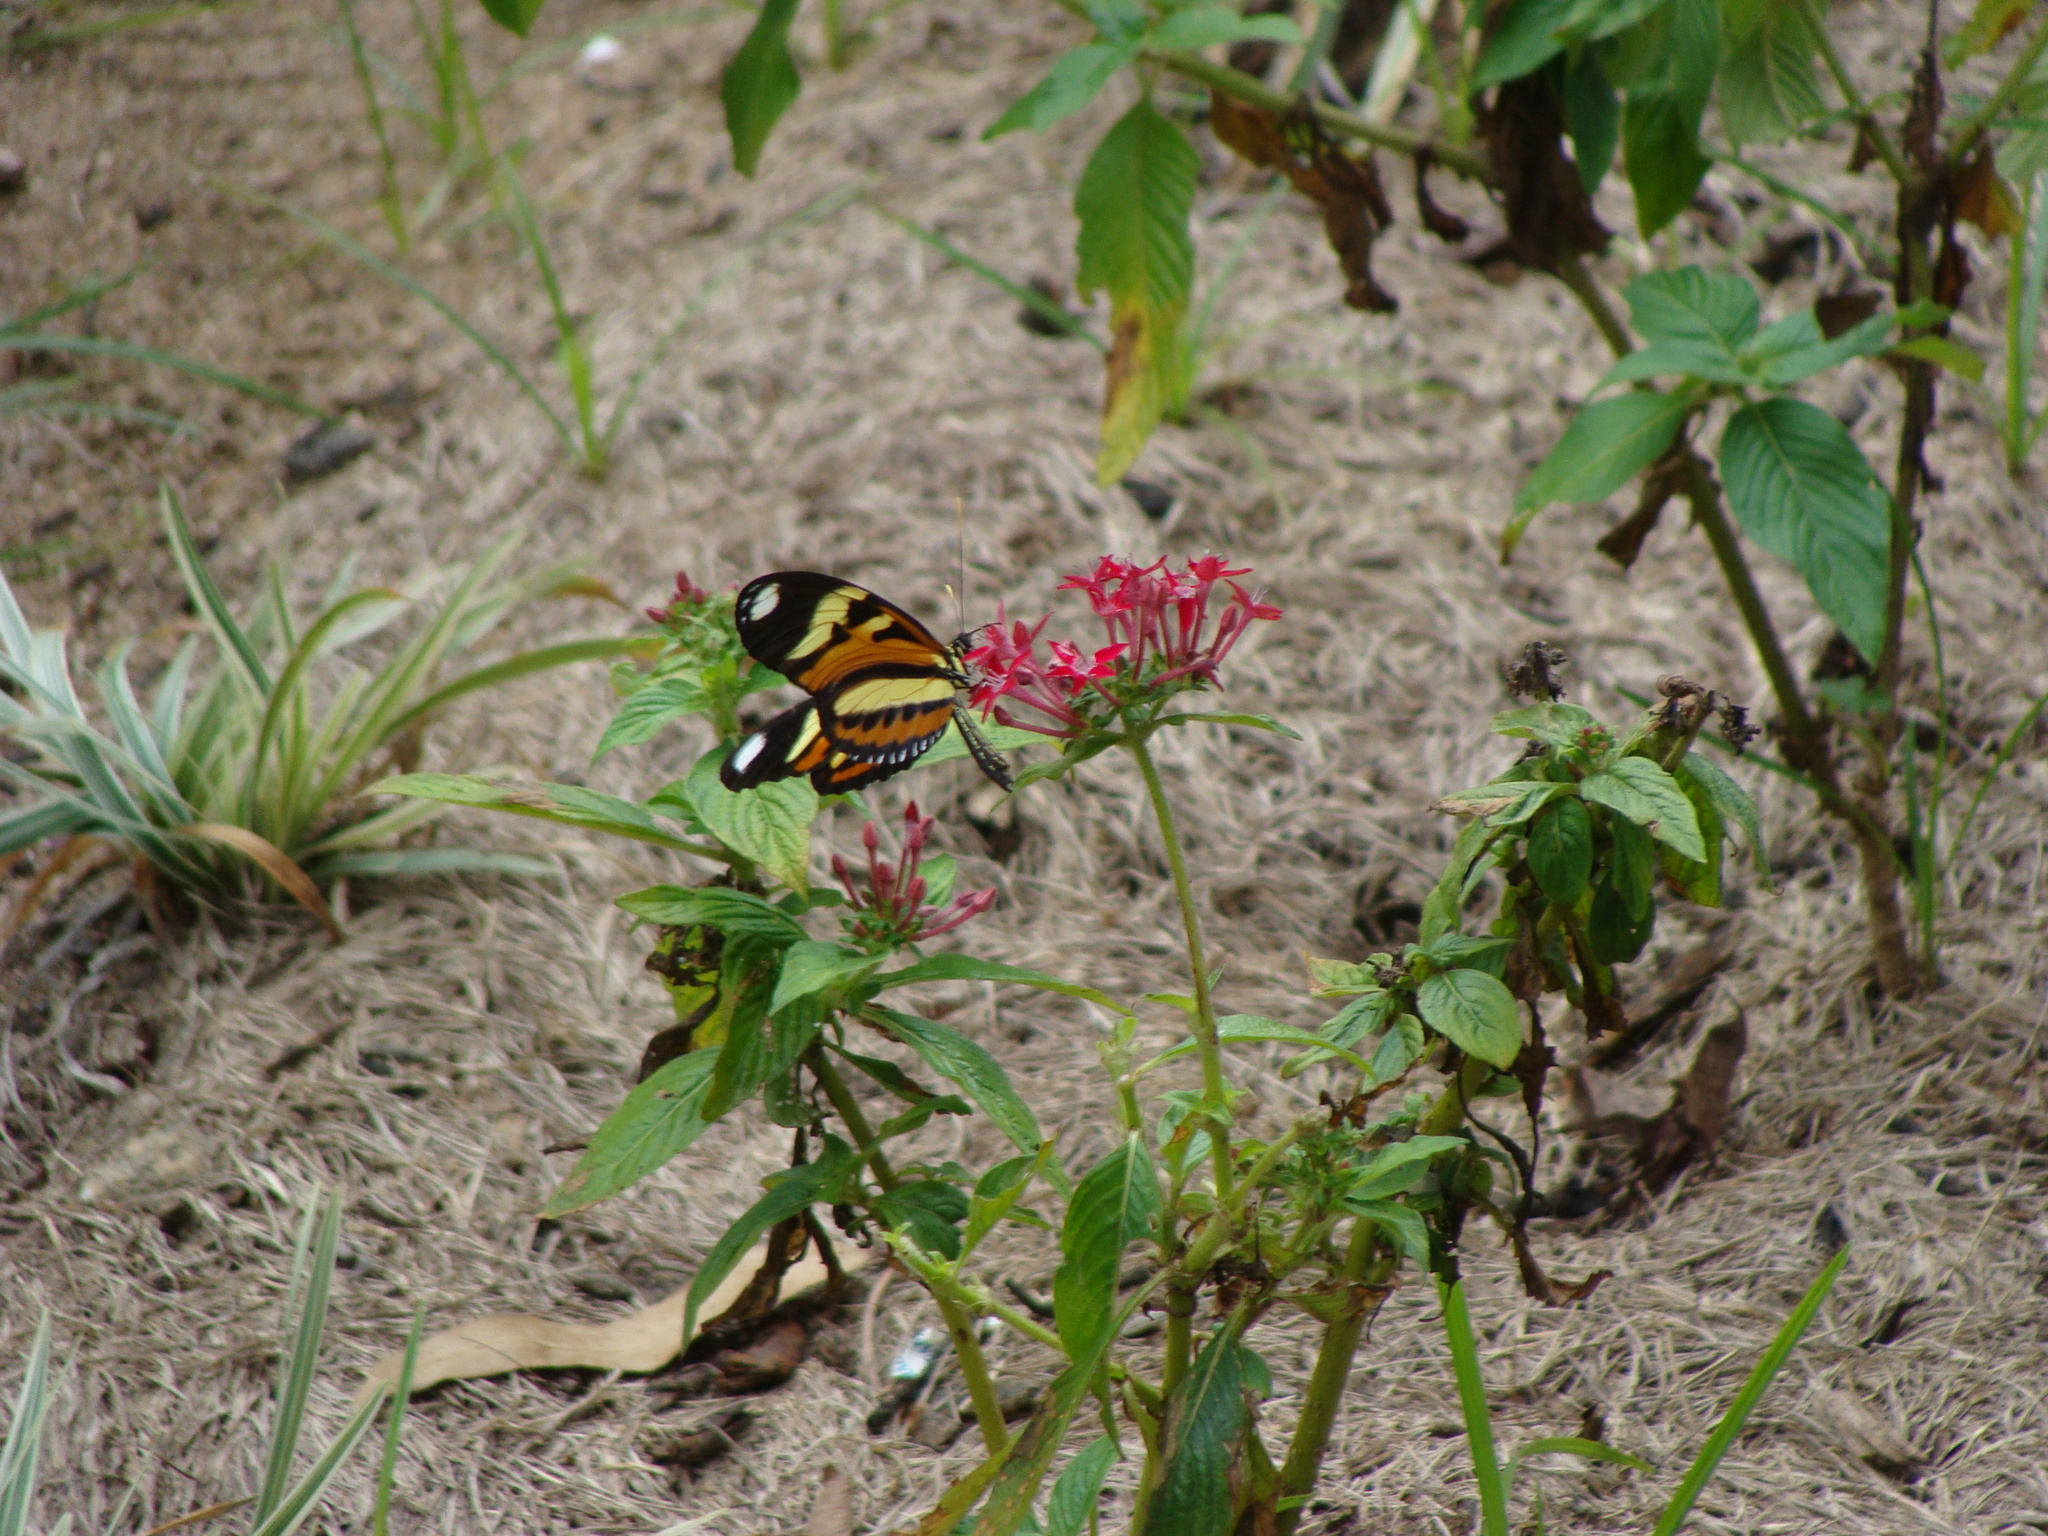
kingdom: Animalia
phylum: Arthropoda
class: Insecta
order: Lepidoptera
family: Nymphalidae
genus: Heliconius
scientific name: Heliconius ethilla
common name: Ethilia longwing
